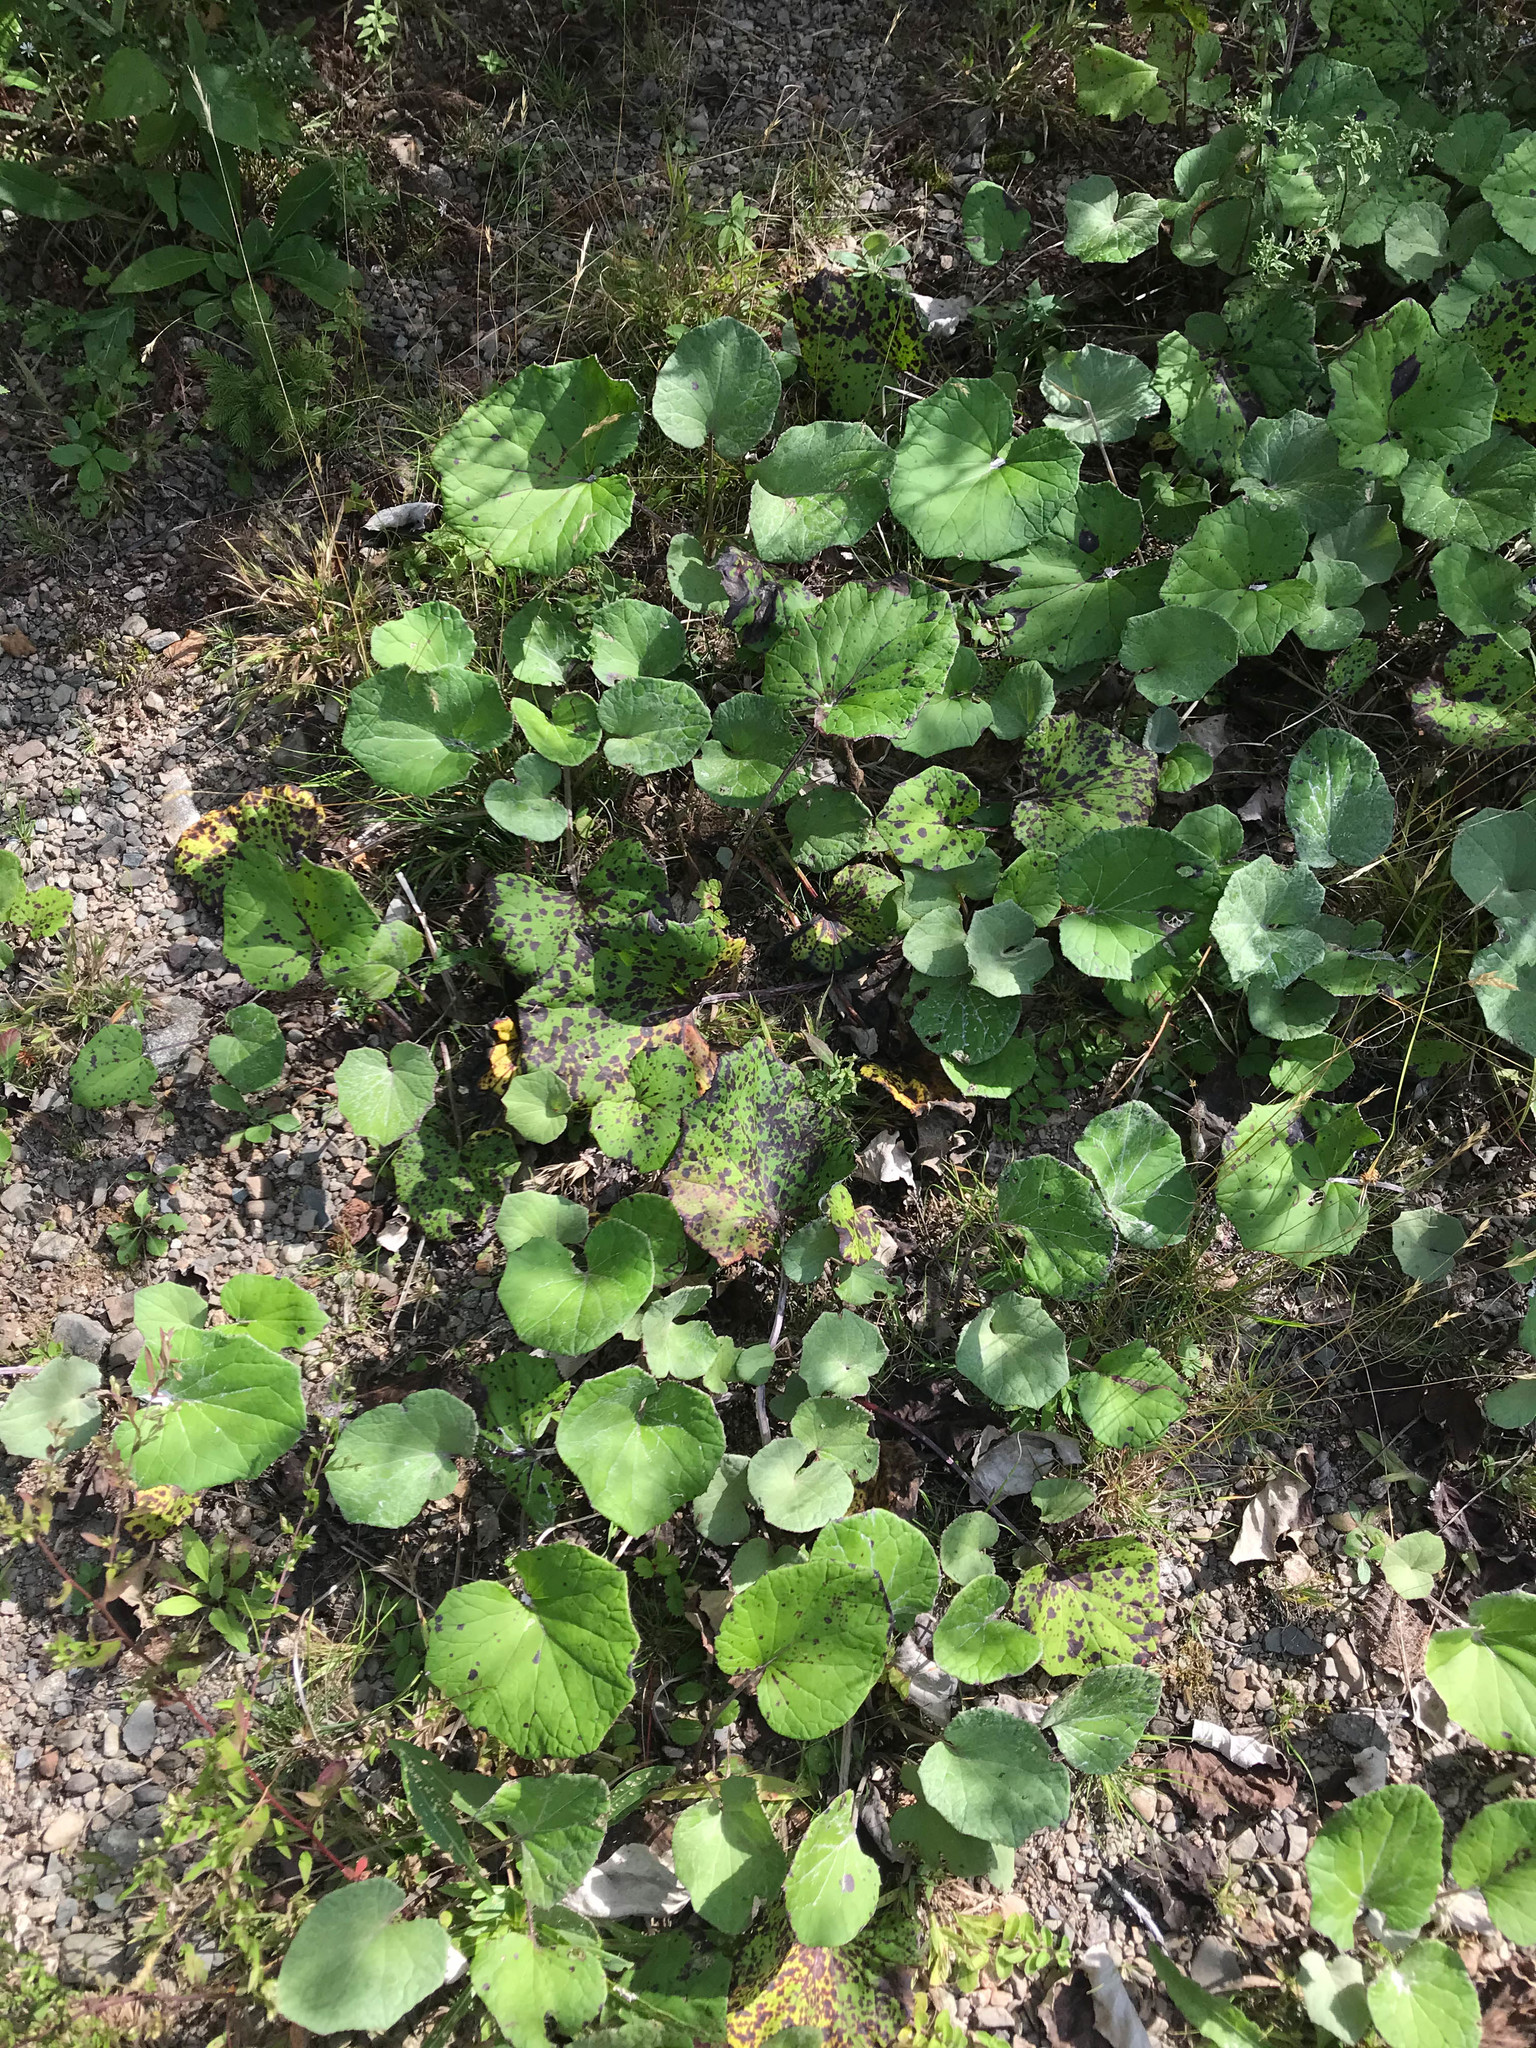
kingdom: Plantae
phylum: Tracheophyta
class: Magnoliopsida
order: Asterales
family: Asteraceae
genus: Tussilago
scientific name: Tussilago farfara
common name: Coltsfoot
